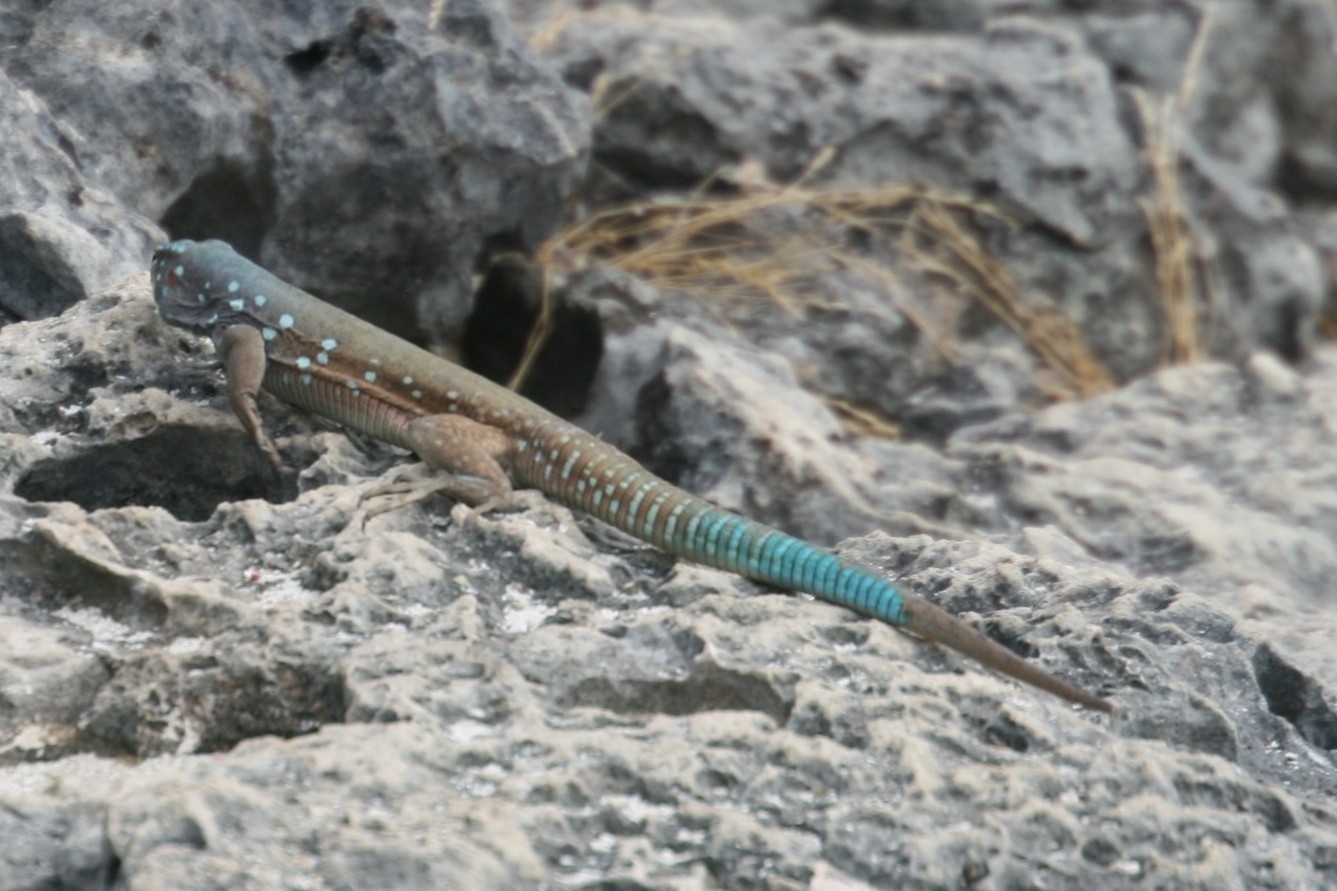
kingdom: Animalia
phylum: Chordata
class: Squamata
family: Teiidae
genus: Cnemidophorus
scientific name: Cnemidophorus ruthveni
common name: Bonaire whiptail
